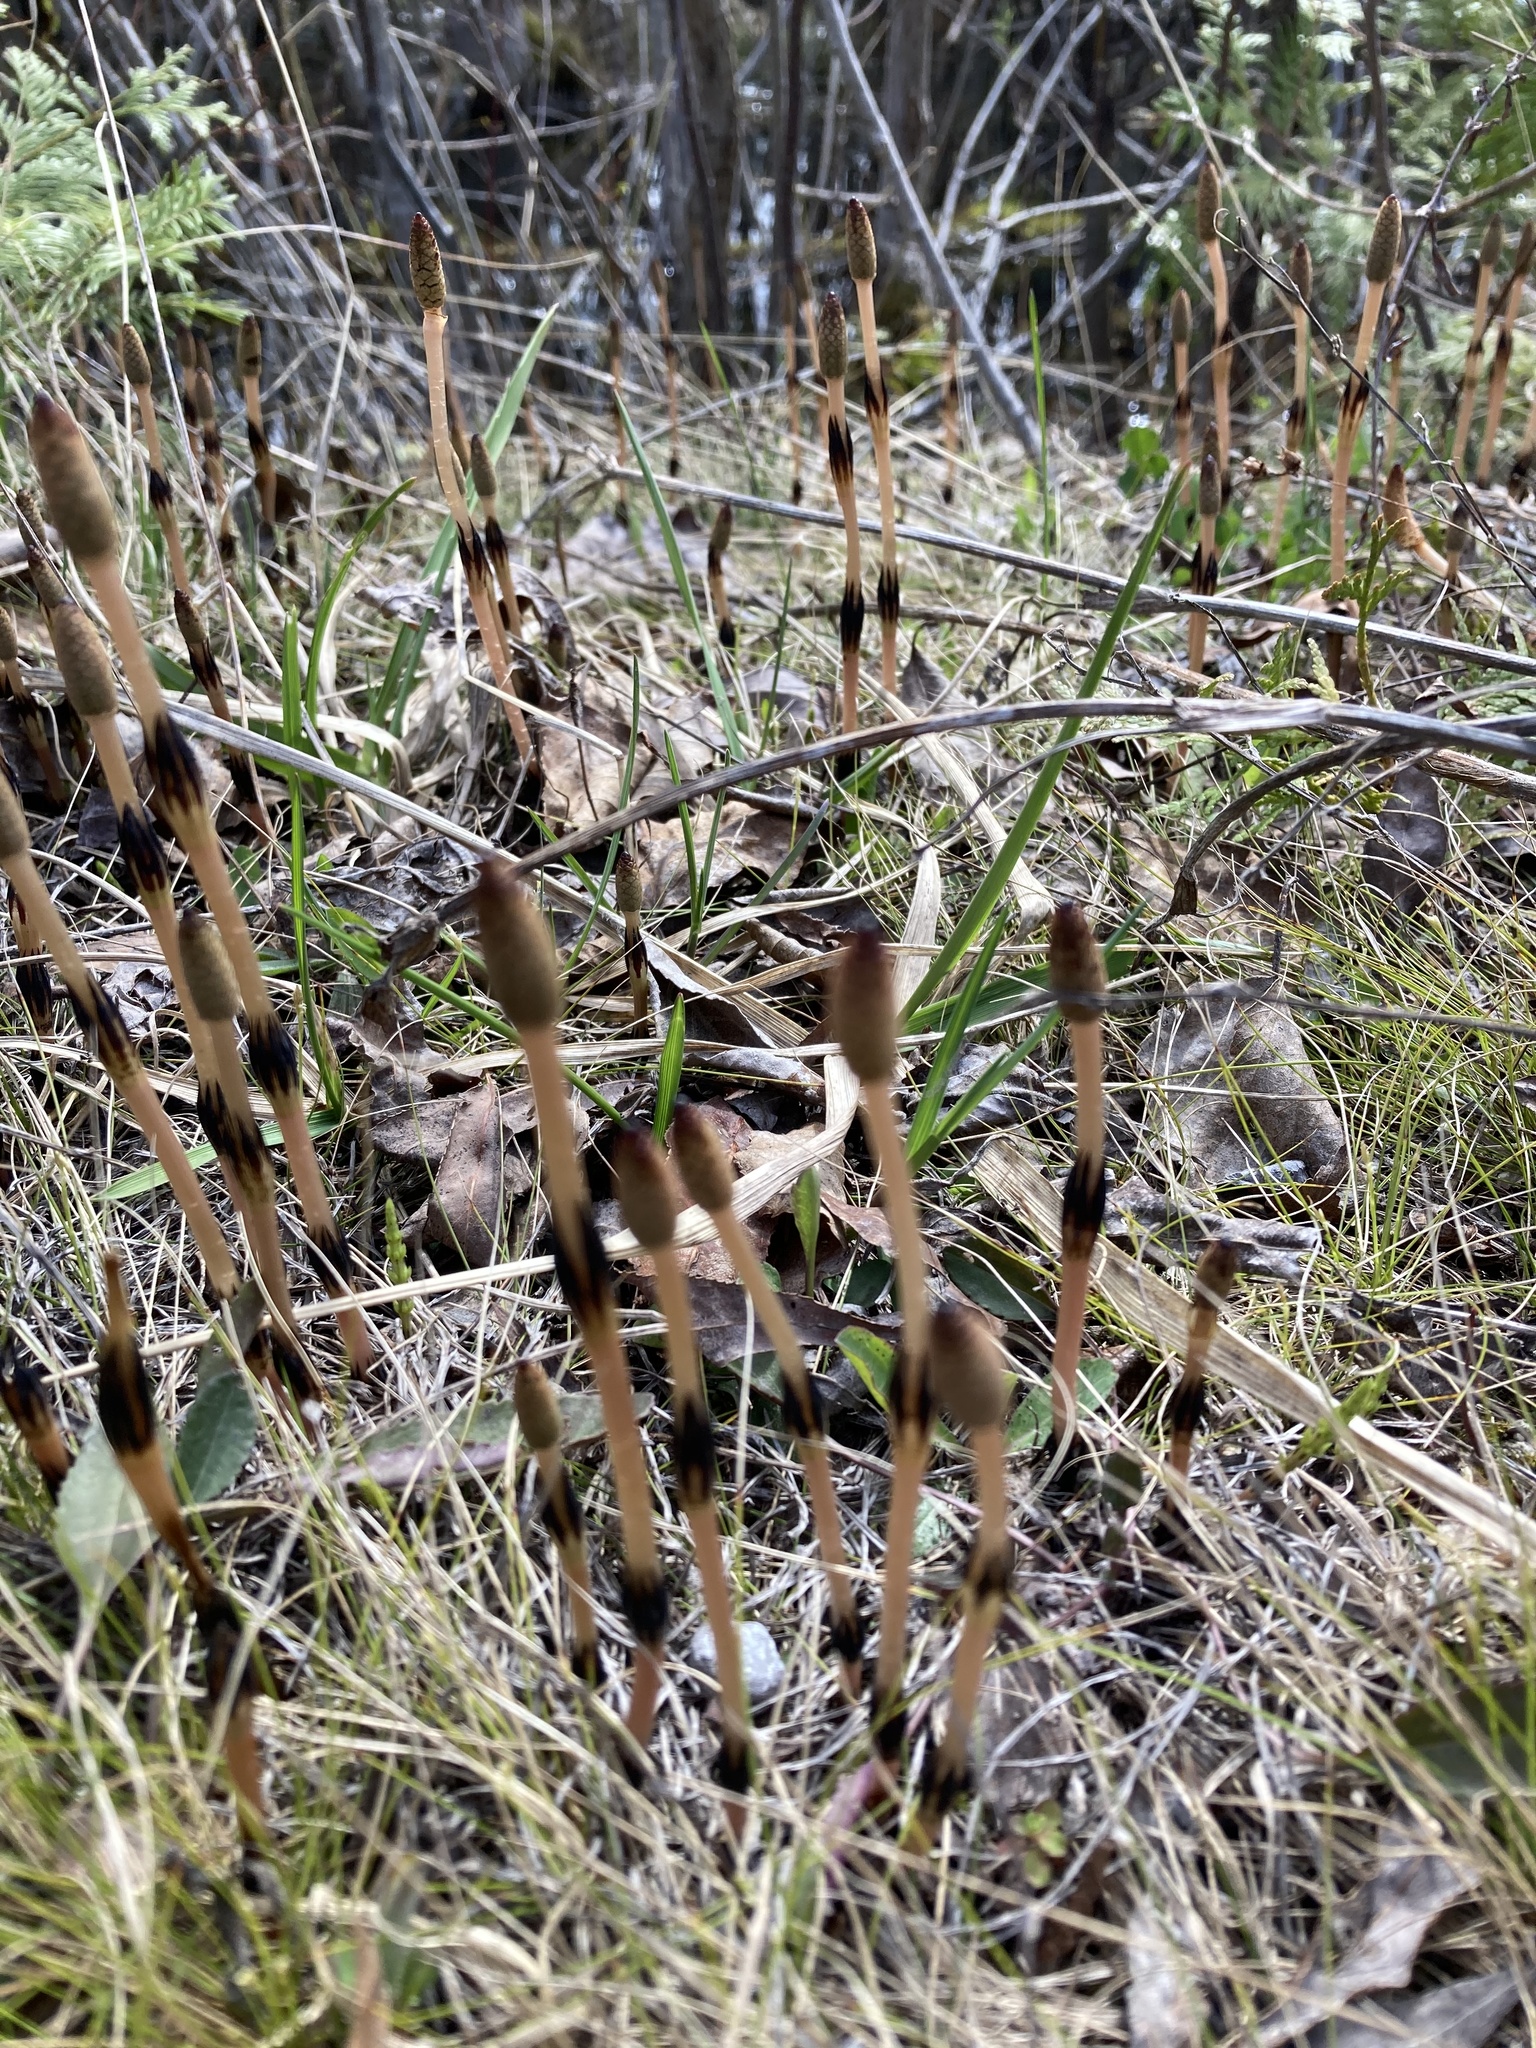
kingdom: Plantae
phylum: Tracheophyta
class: Polypodiopsida
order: Equisetales
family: Equisetaceae
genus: Equisetum
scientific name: Equisetum arvense
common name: Field horsetail
